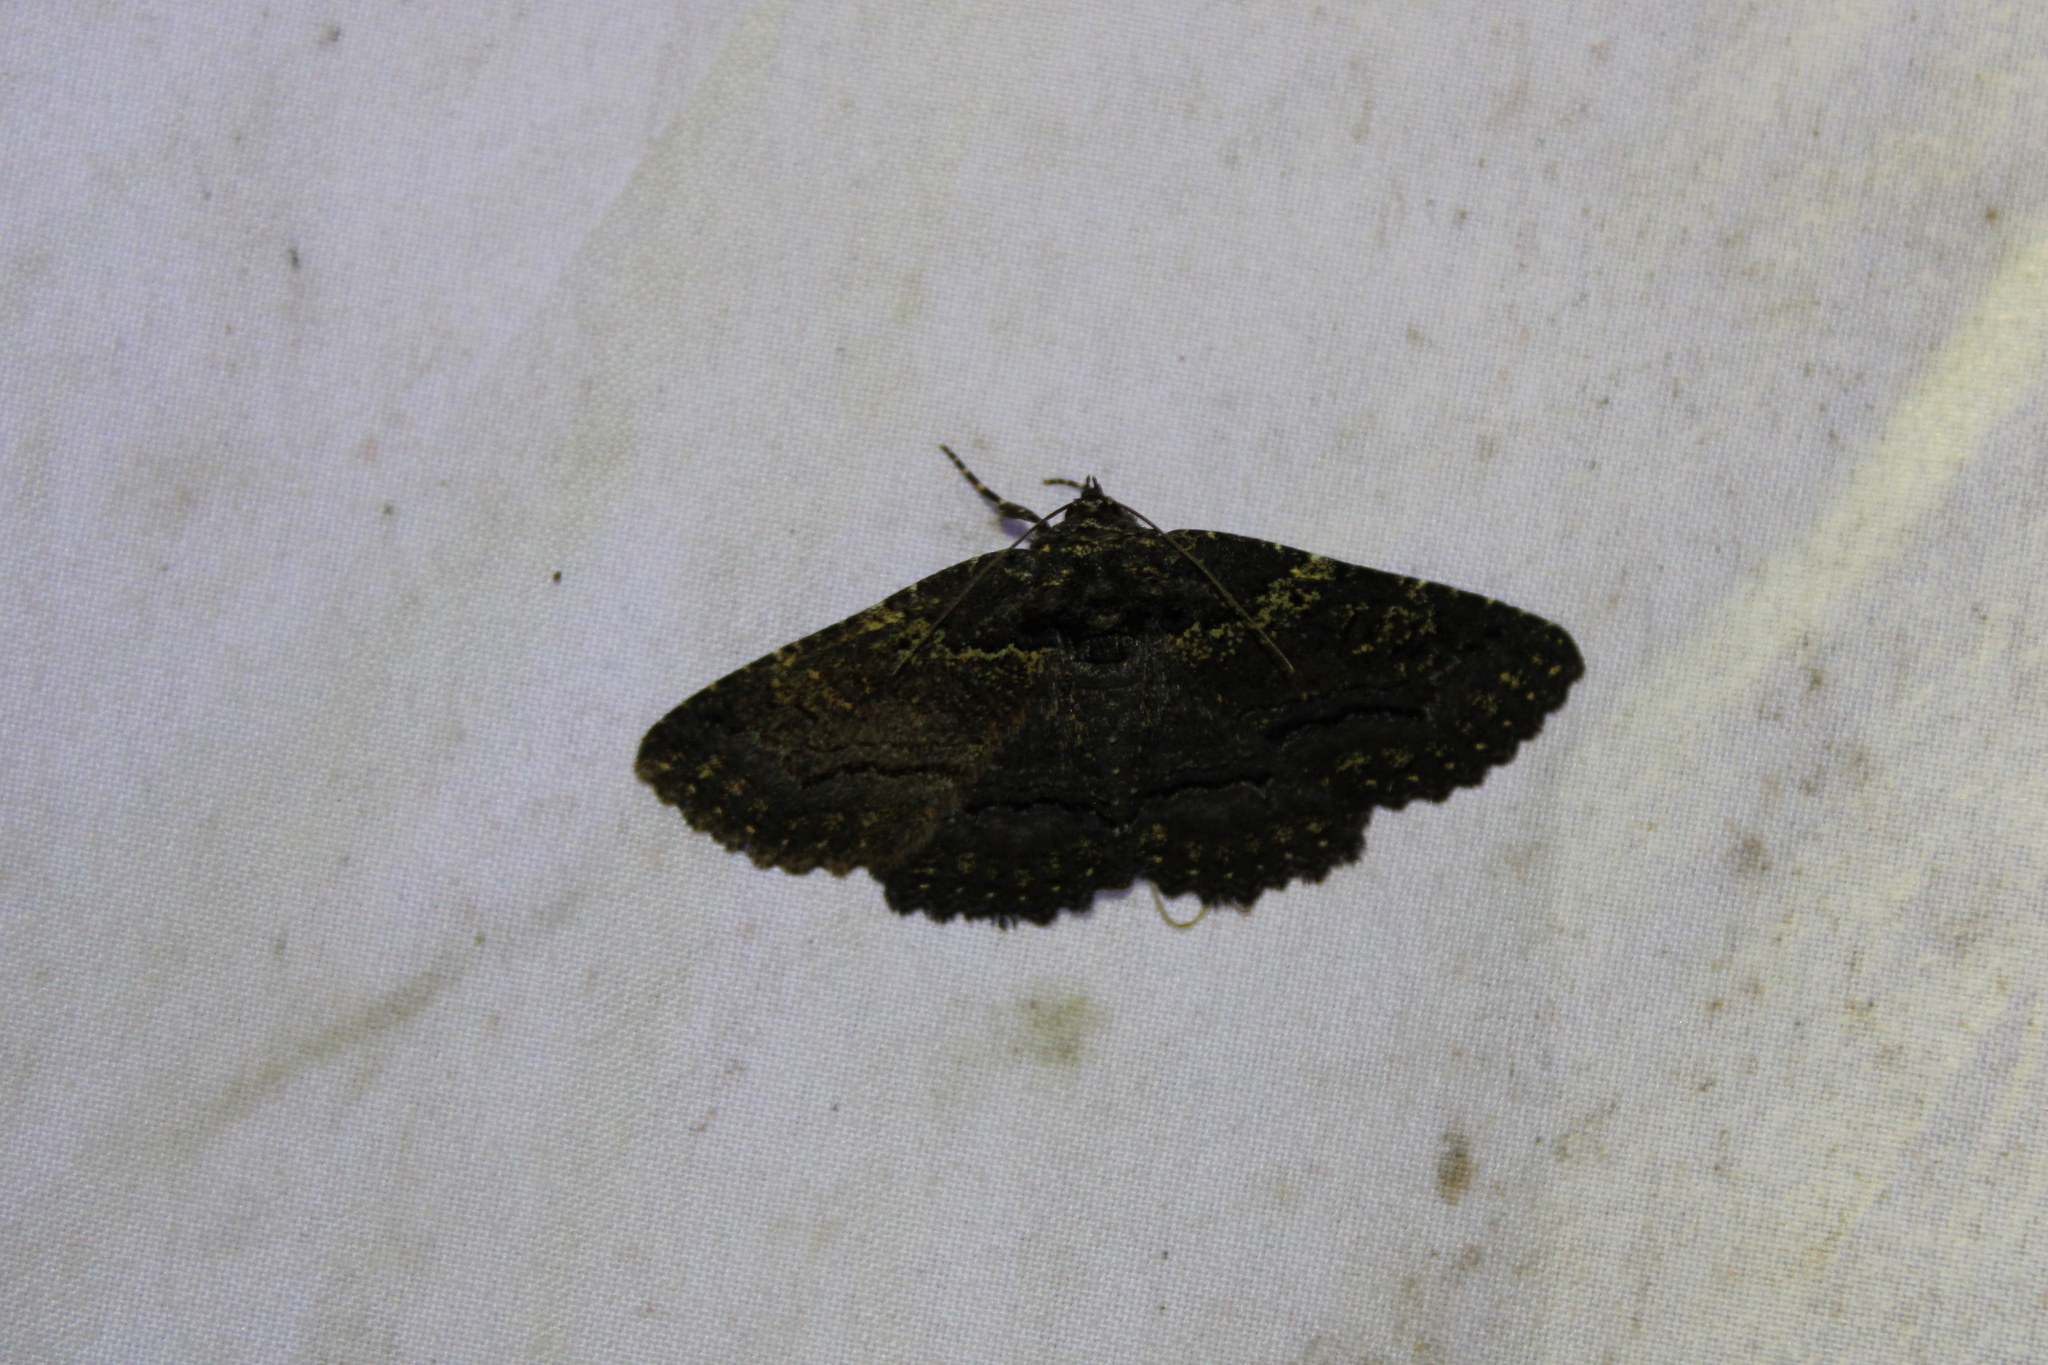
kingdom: Animalia
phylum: Arthropoda
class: Insecta
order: Lepidoptera
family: Erebidae
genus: Zale
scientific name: Zale aeruginosa
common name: Green-dusted zale moth
